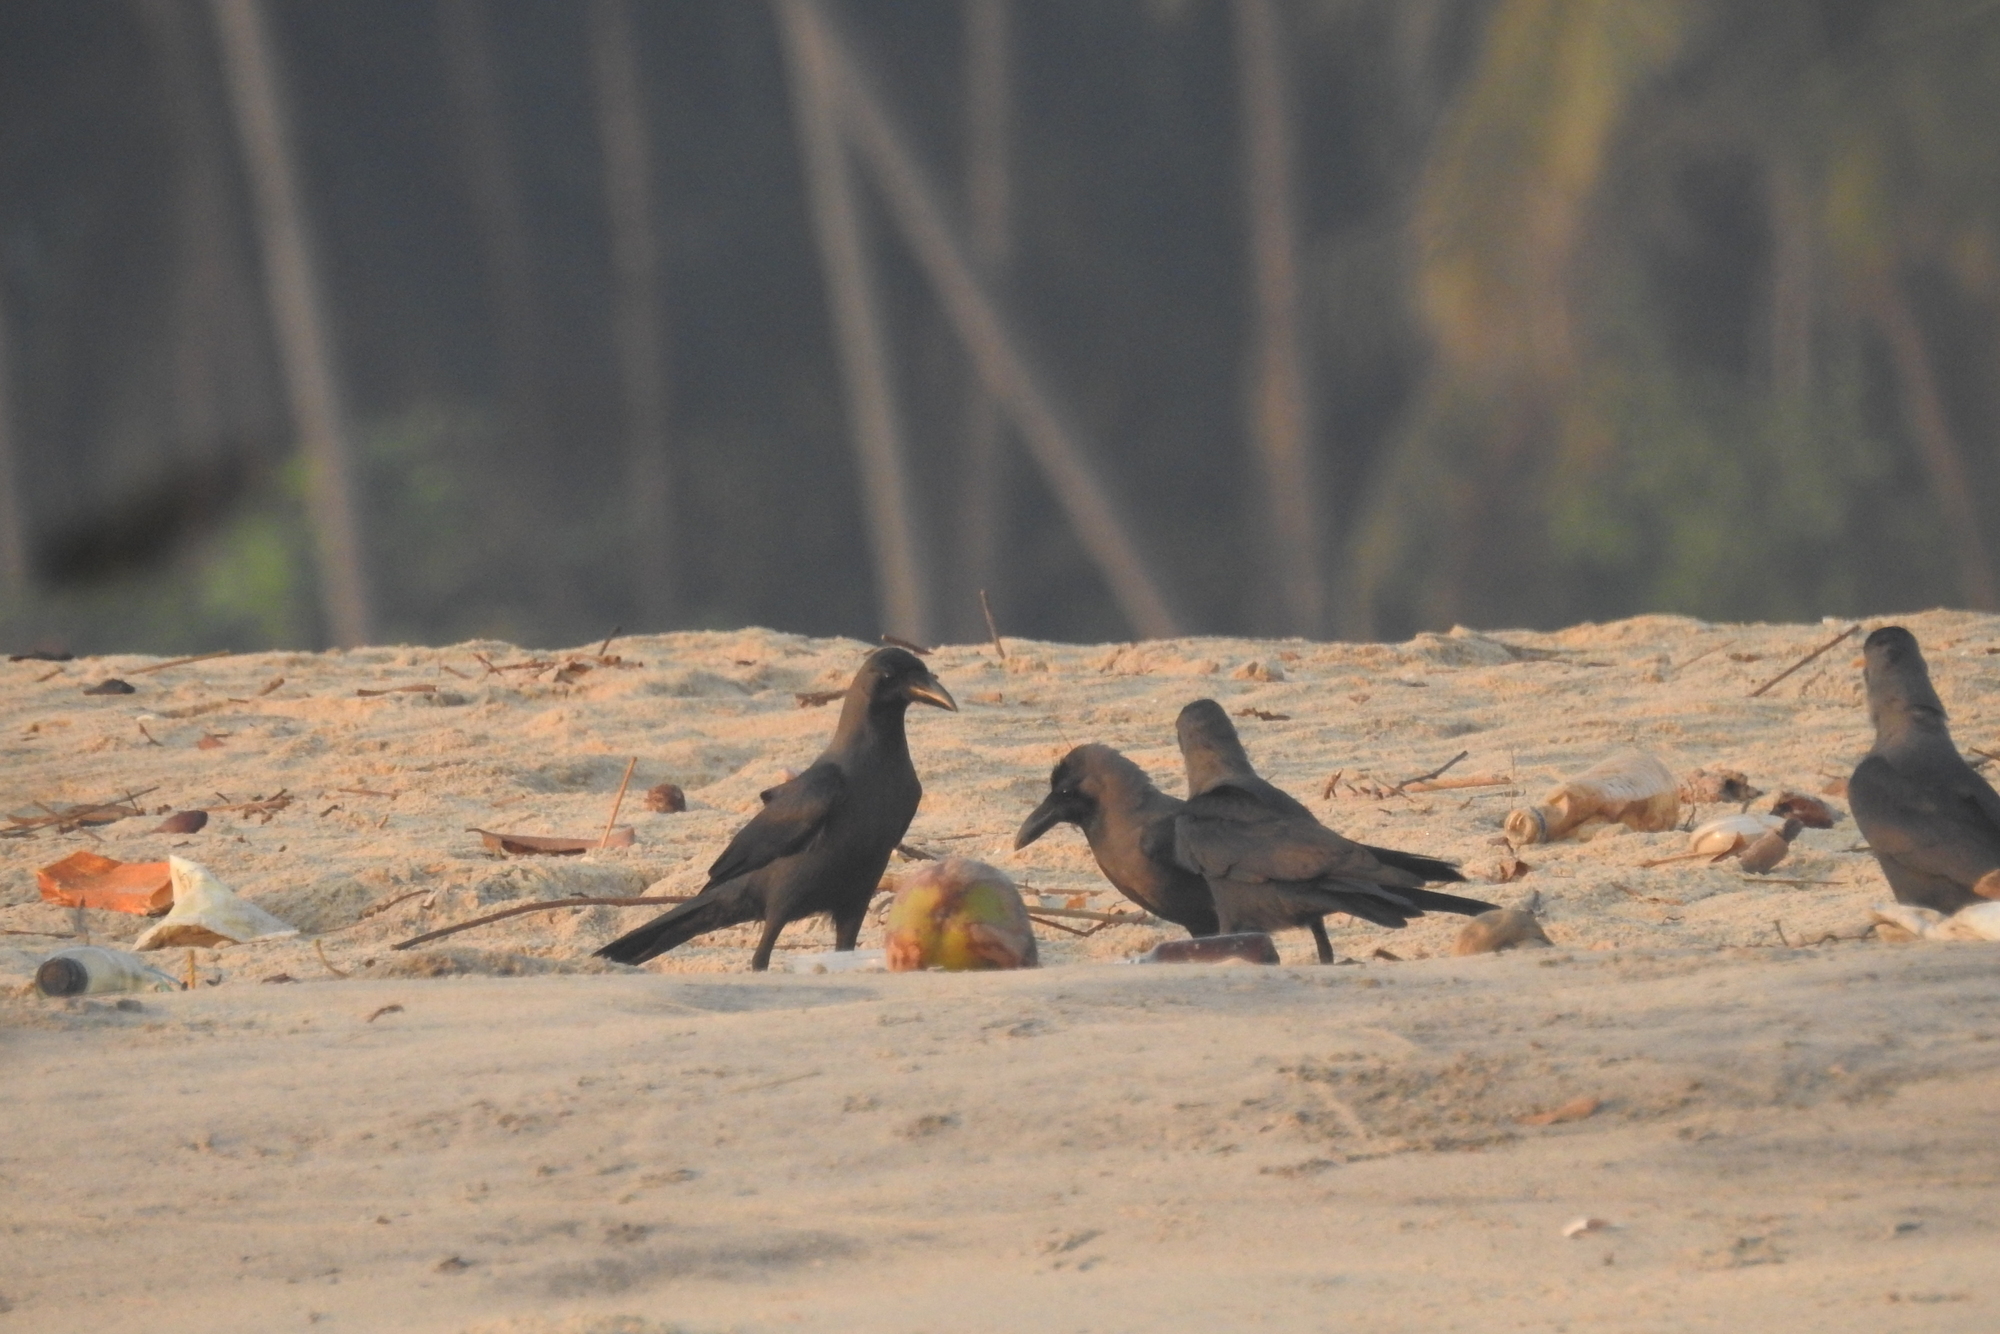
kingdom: Animalia
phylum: Chordata
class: Aves
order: Passeriformes
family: Corvidae
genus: Corvus
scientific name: Corvus splendens
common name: House crow
